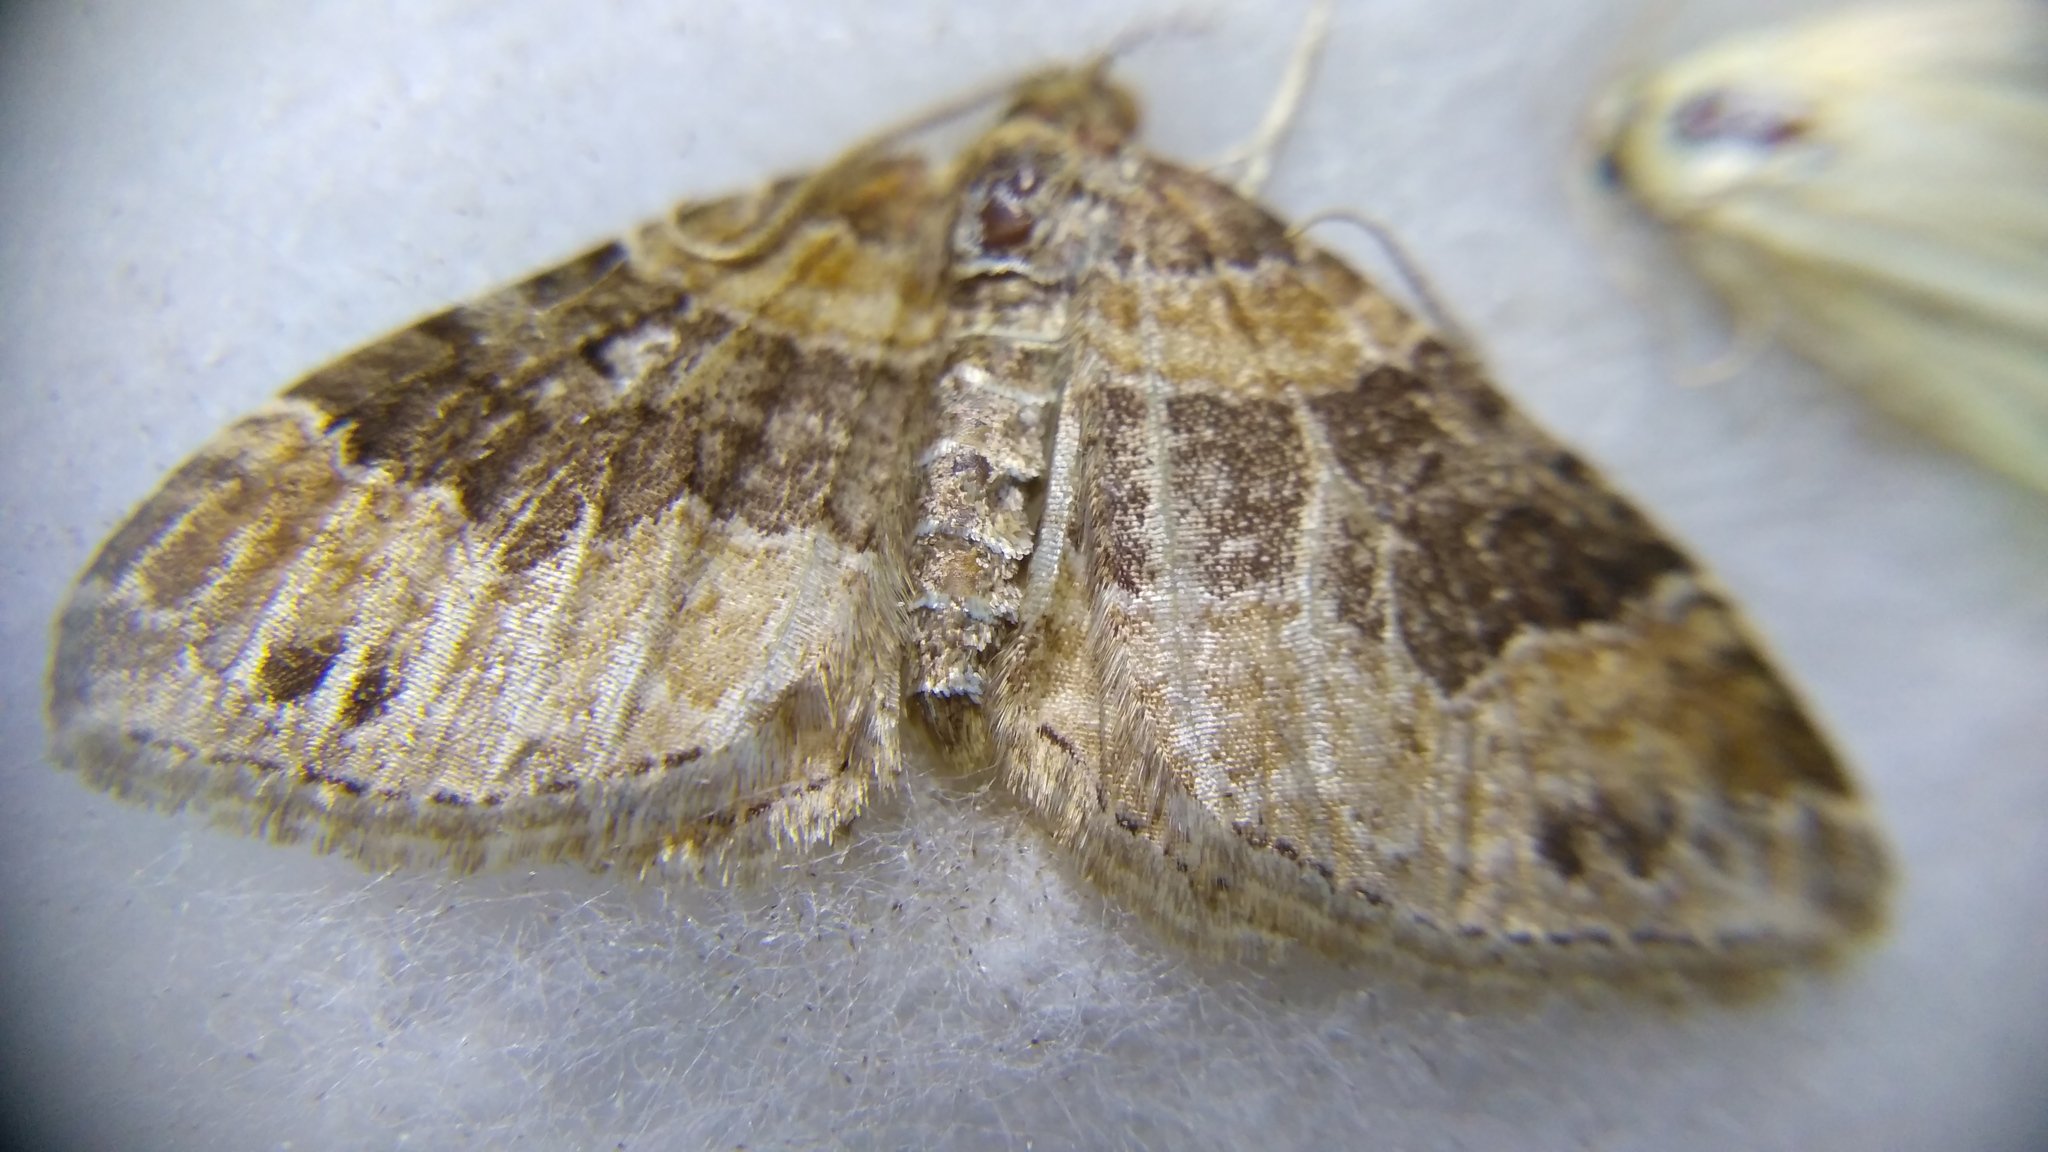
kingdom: Animalia
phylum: Arthropoda
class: Insecta
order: Lepidoptera
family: Geometridae
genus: Xanthorhoe
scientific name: Xanthorhoe quadrifasiata
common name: Large twin-spot carpet
